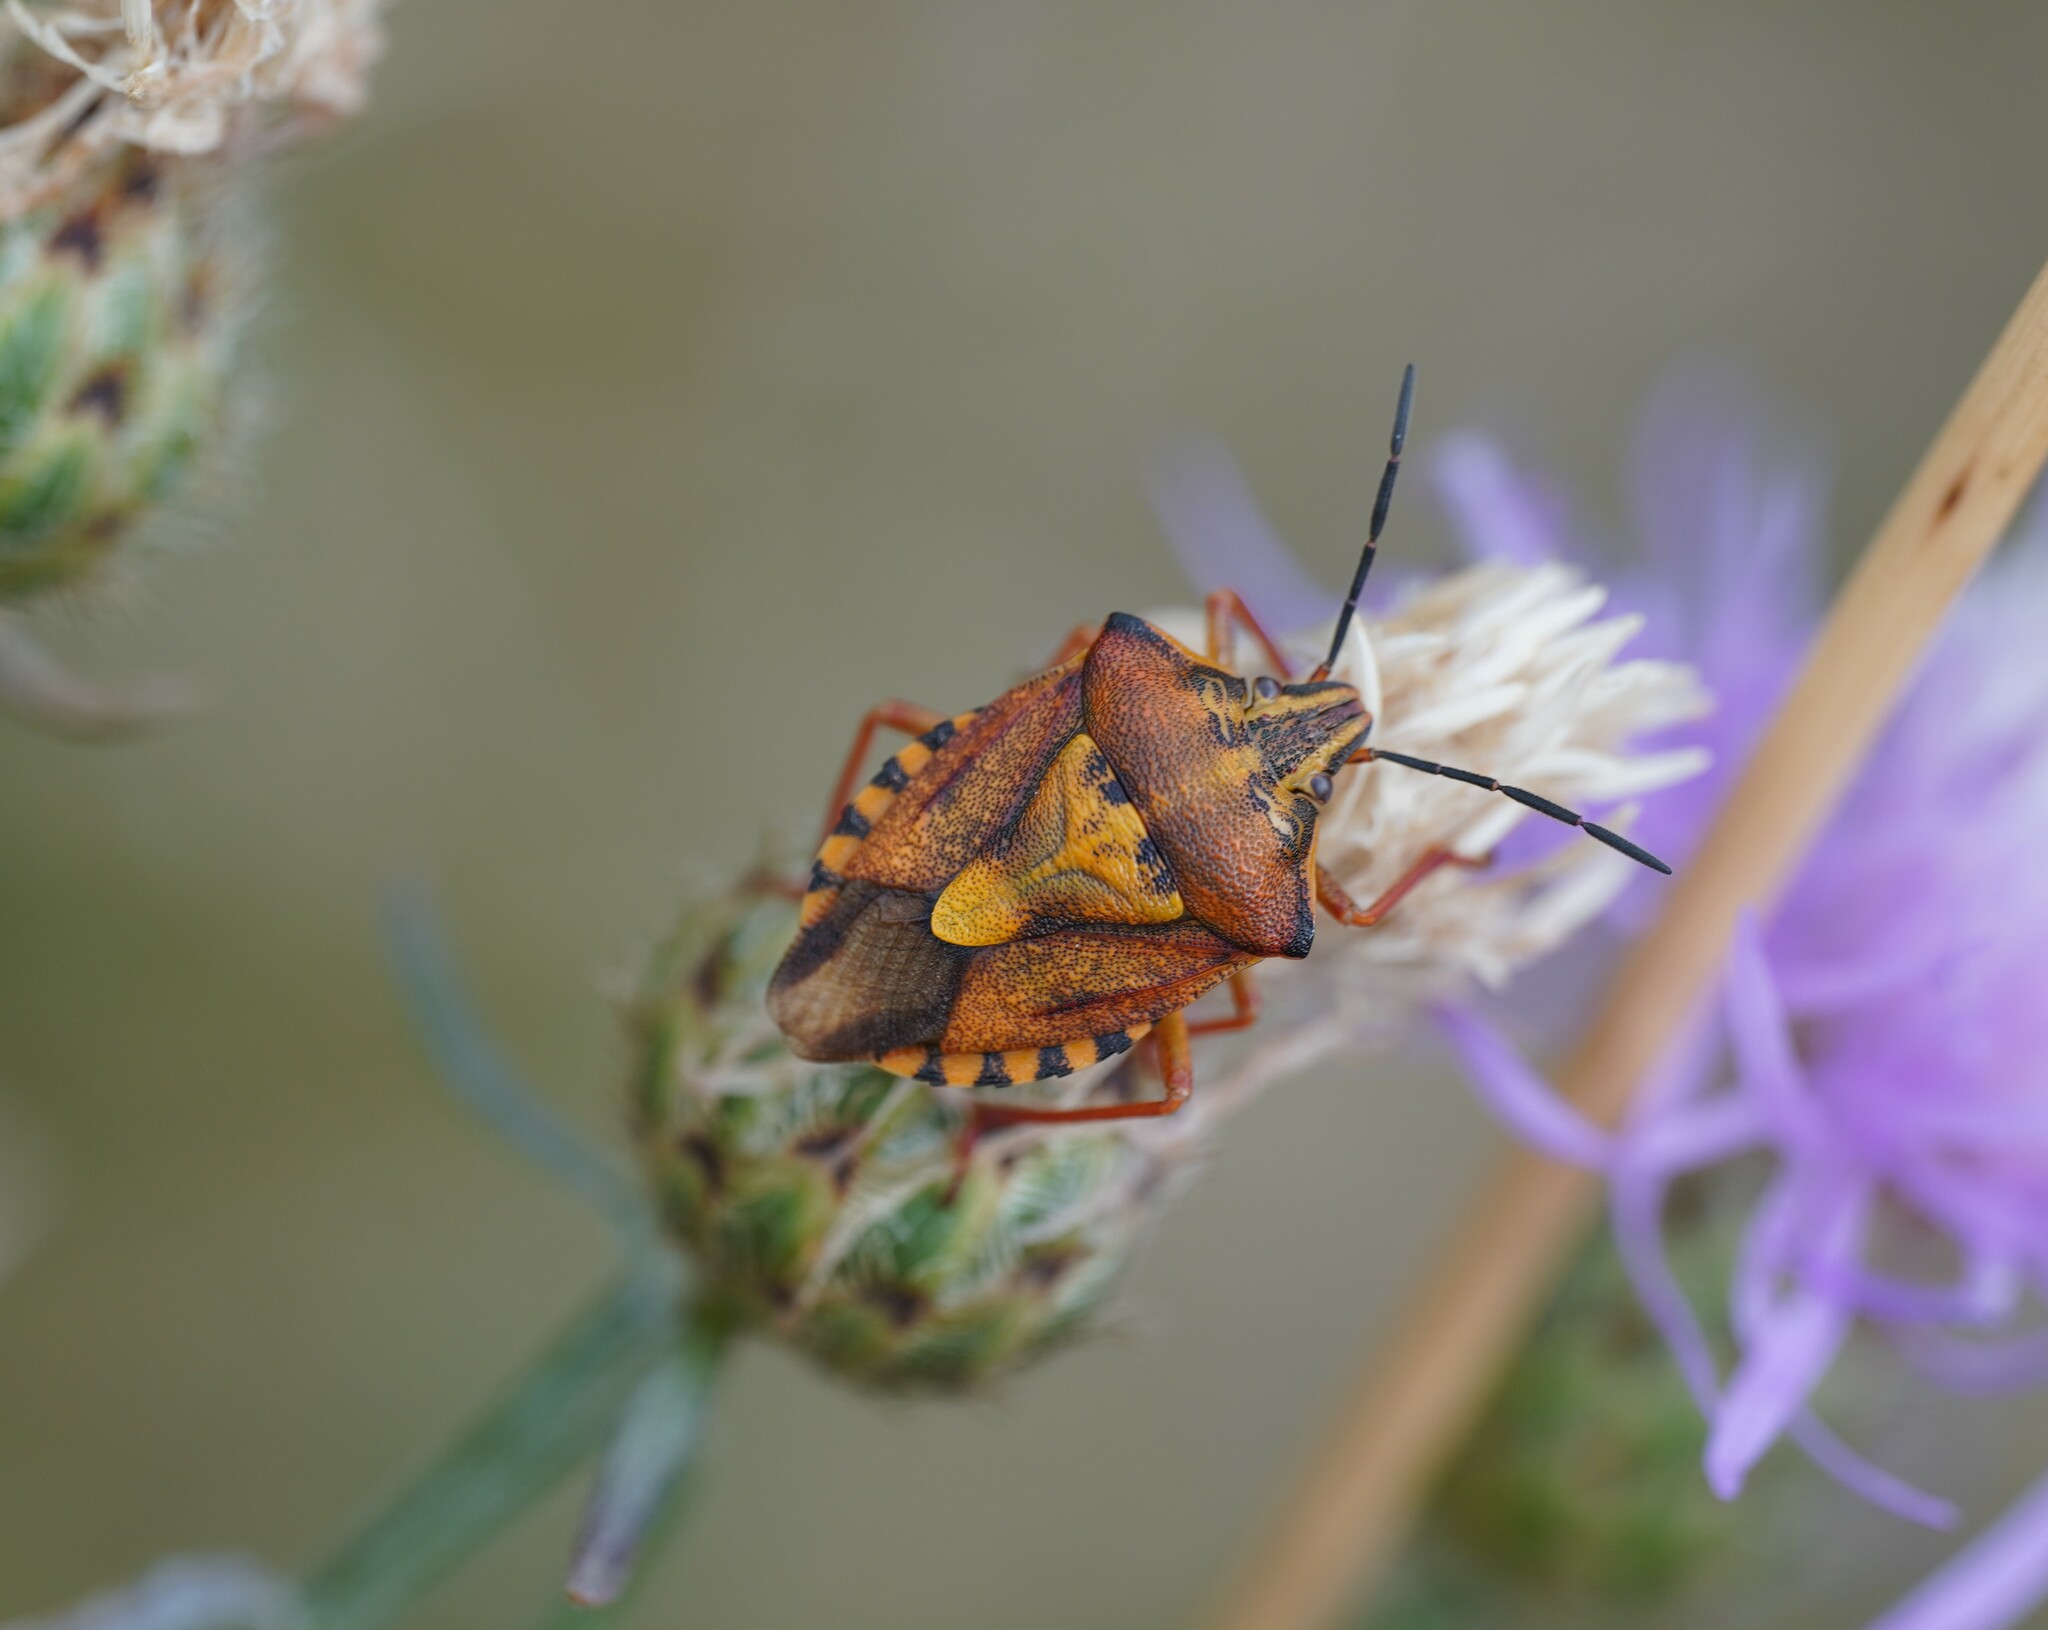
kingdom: Animalia
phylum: Arthropoda
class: Insecta
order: Hemiptera
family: Pentatomidae
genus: Carpocoris
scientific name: Carpocoris purpureipennis
